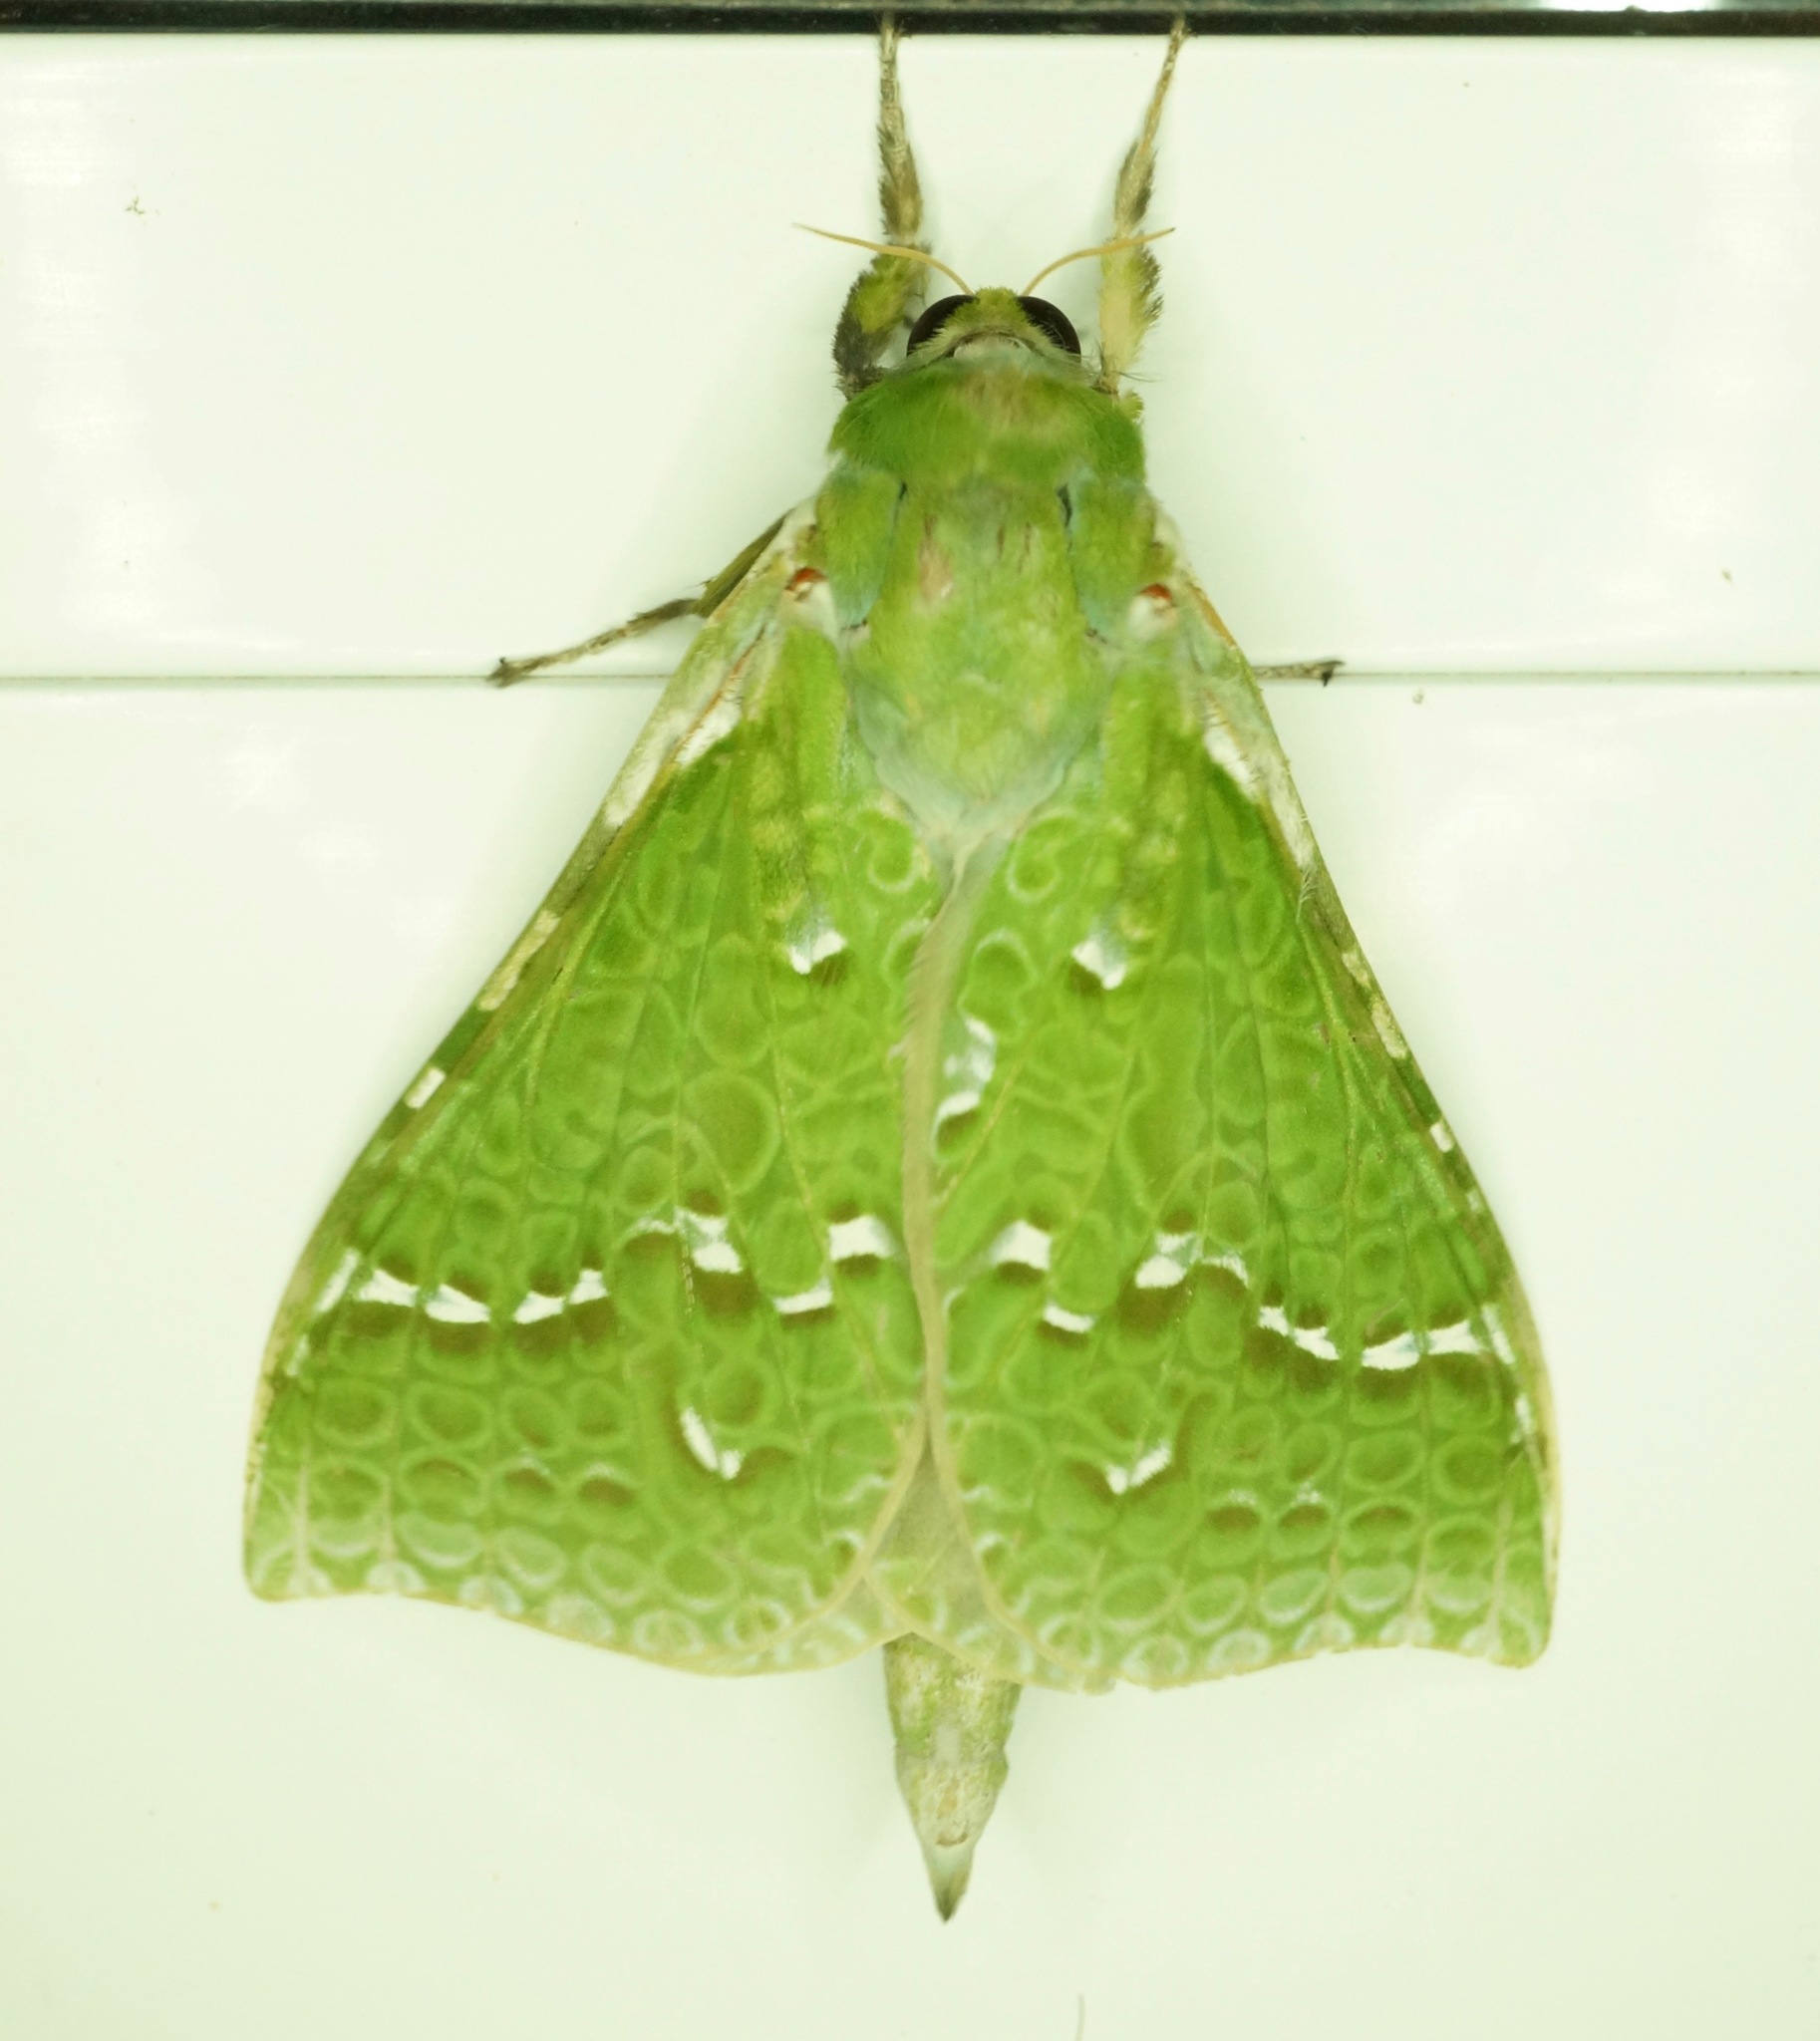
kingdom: Animalia
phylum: Arthropoda
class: Insecta
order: Lepidoptera
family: Hepialidae
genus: Aenetus
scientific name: Aenetus virescens
